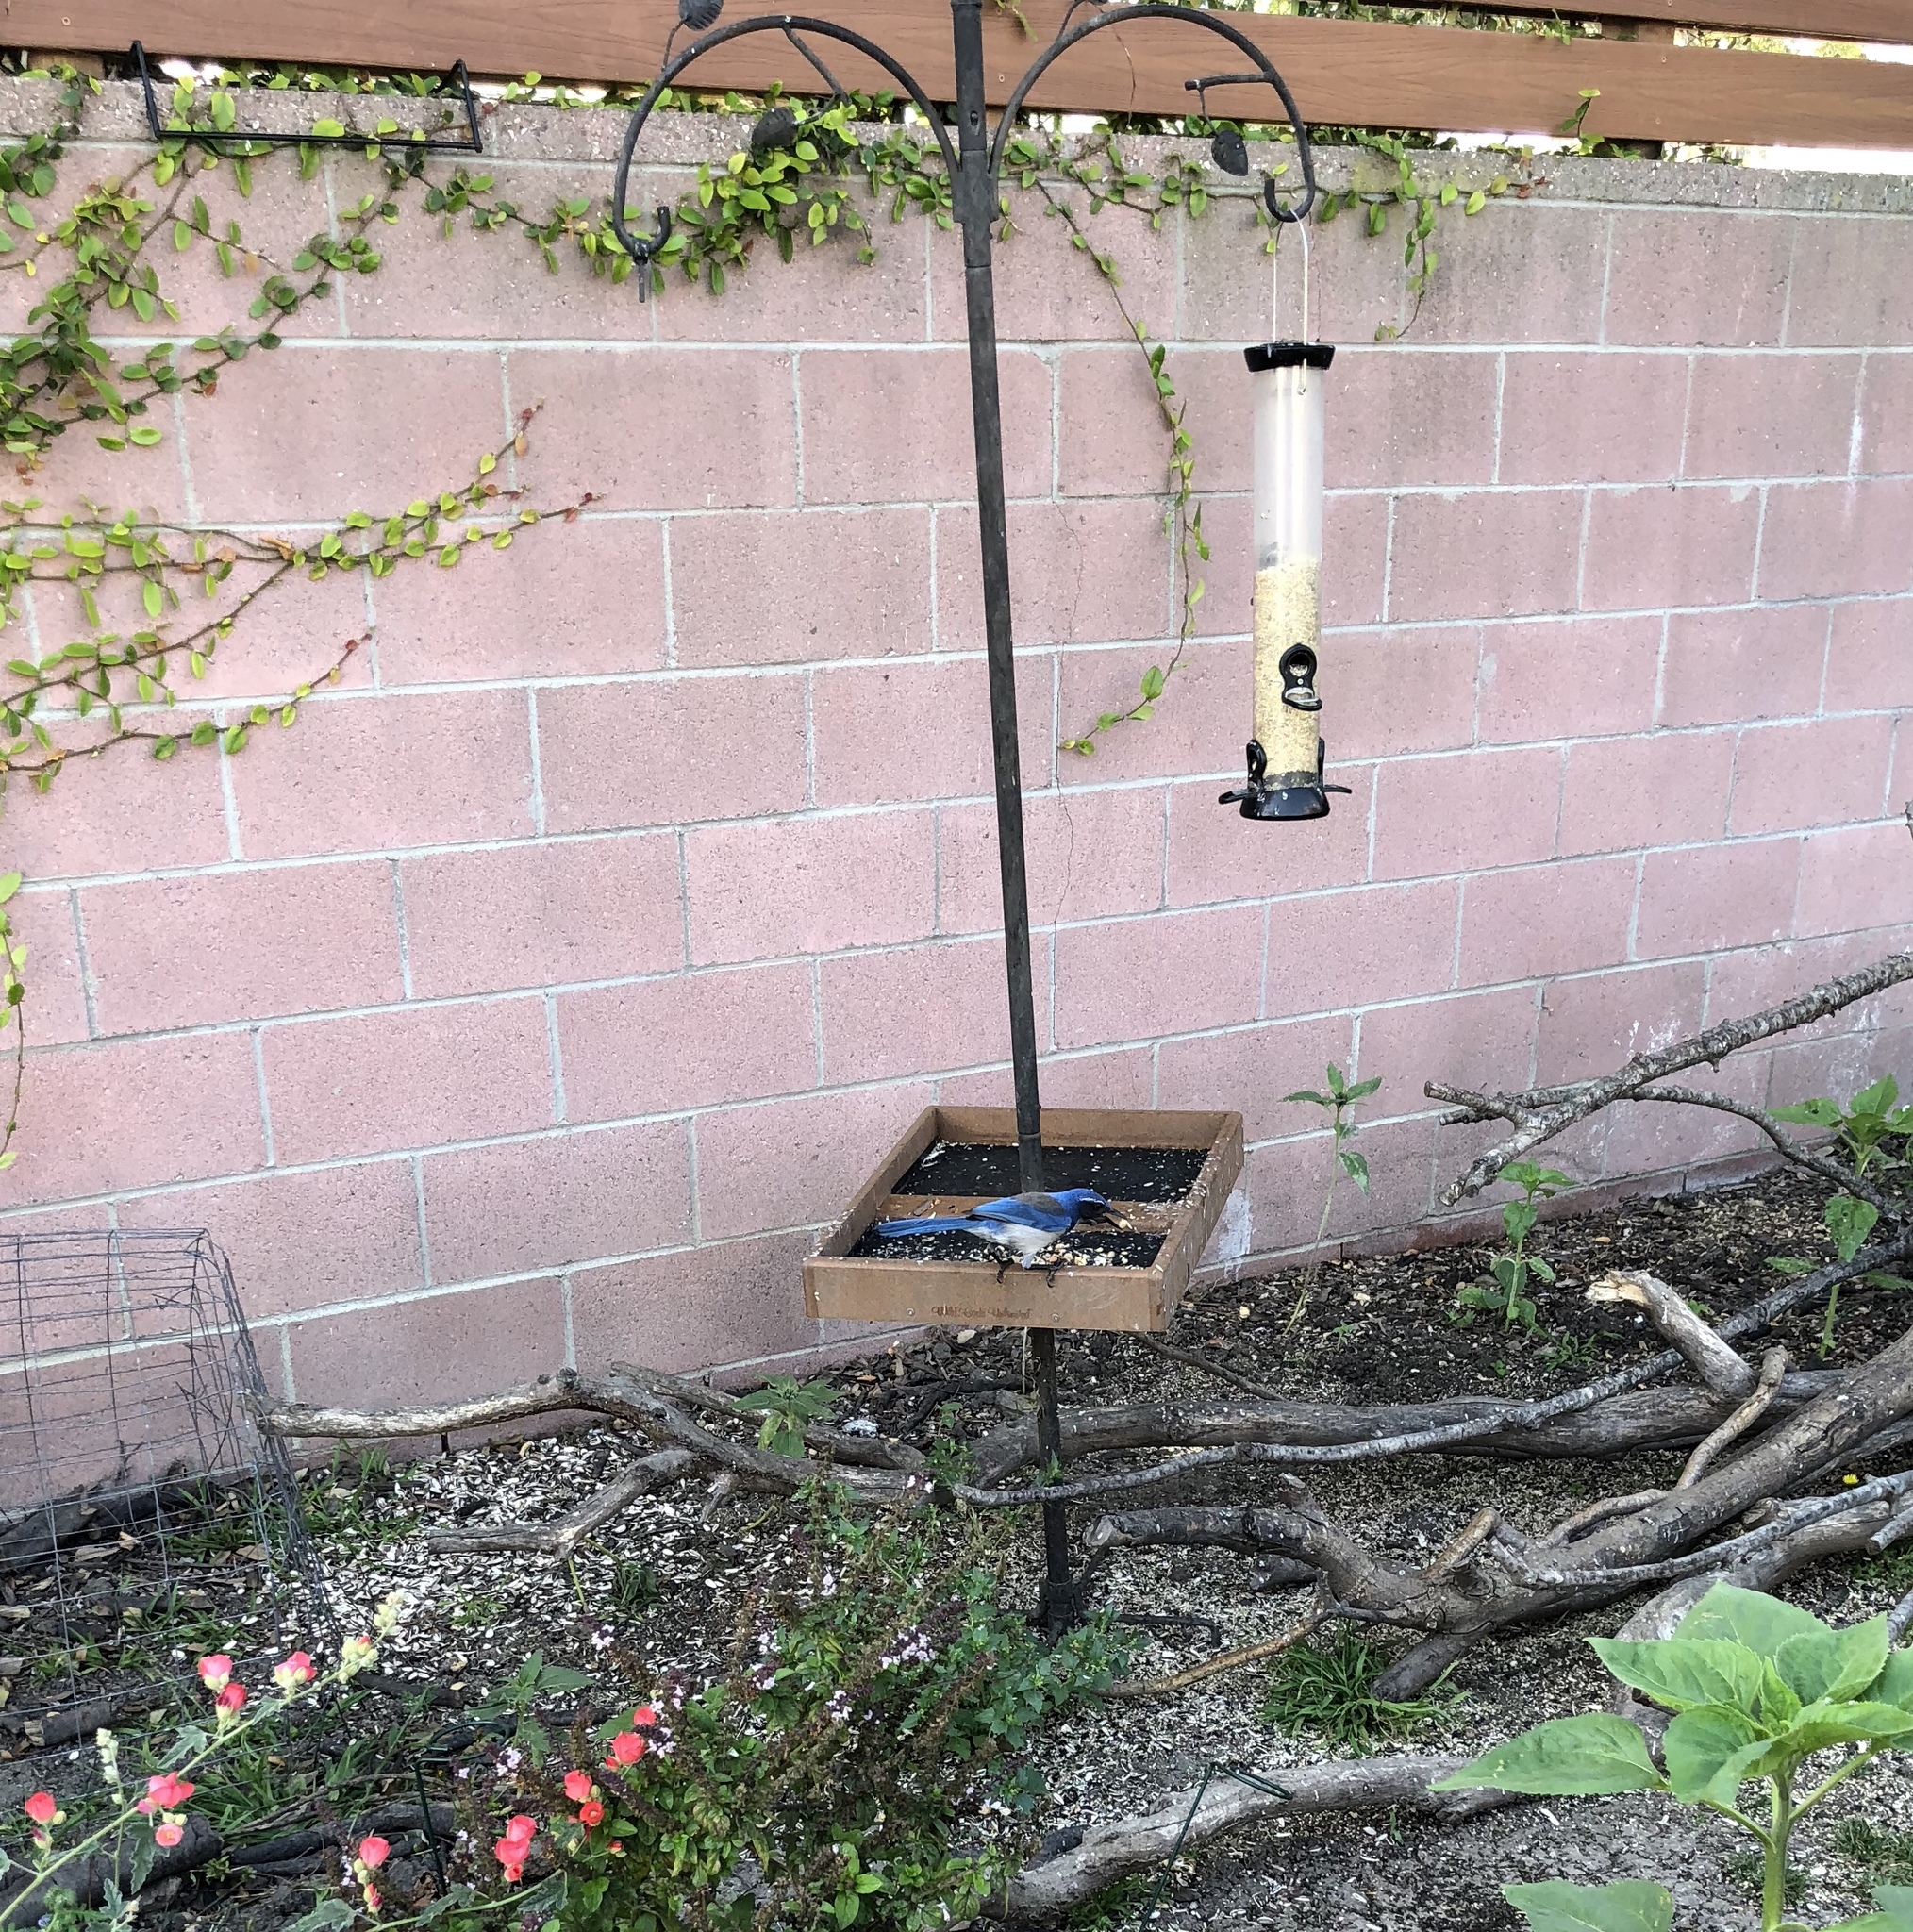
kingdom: Animalia
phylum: Chordata
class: Aves
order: Passeriformes
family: Corvidae
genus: Aphelocoma
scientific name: Aphelocoma californica
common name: California scrub-jay
